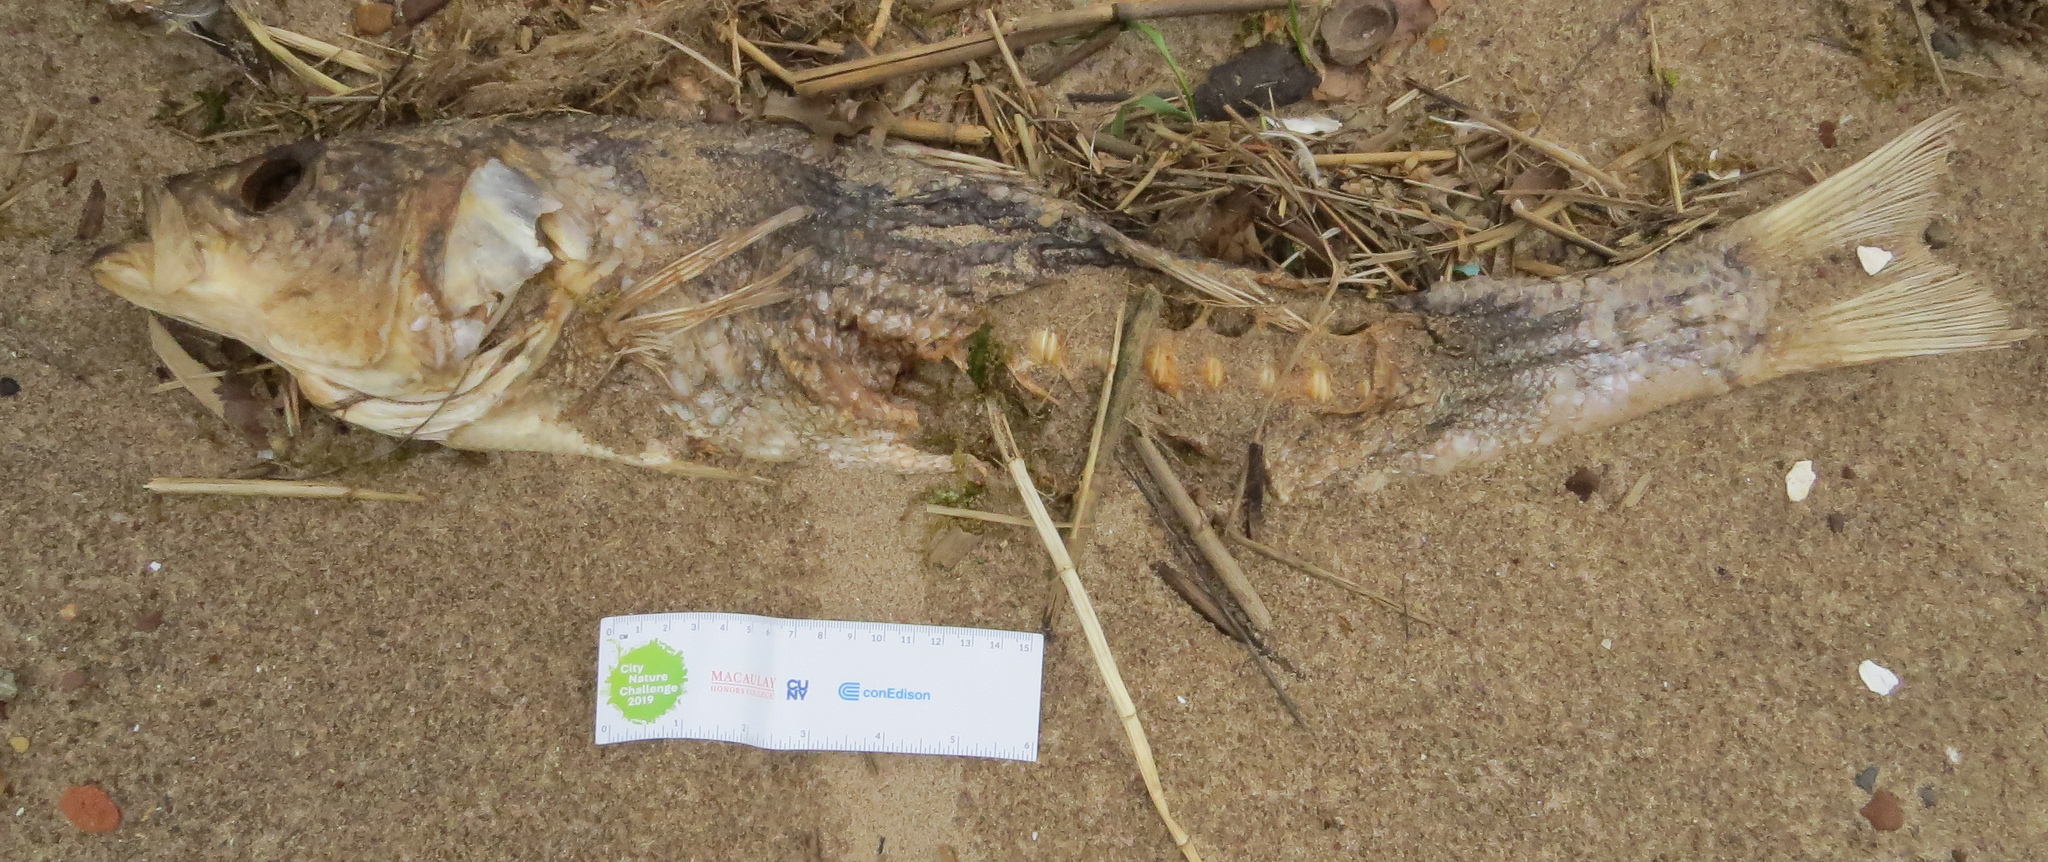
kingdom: Animalia
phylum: Chordata
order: Perciformes
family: Moronidae
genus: Morone
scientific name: Morone saxatilis
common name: Striped bass
